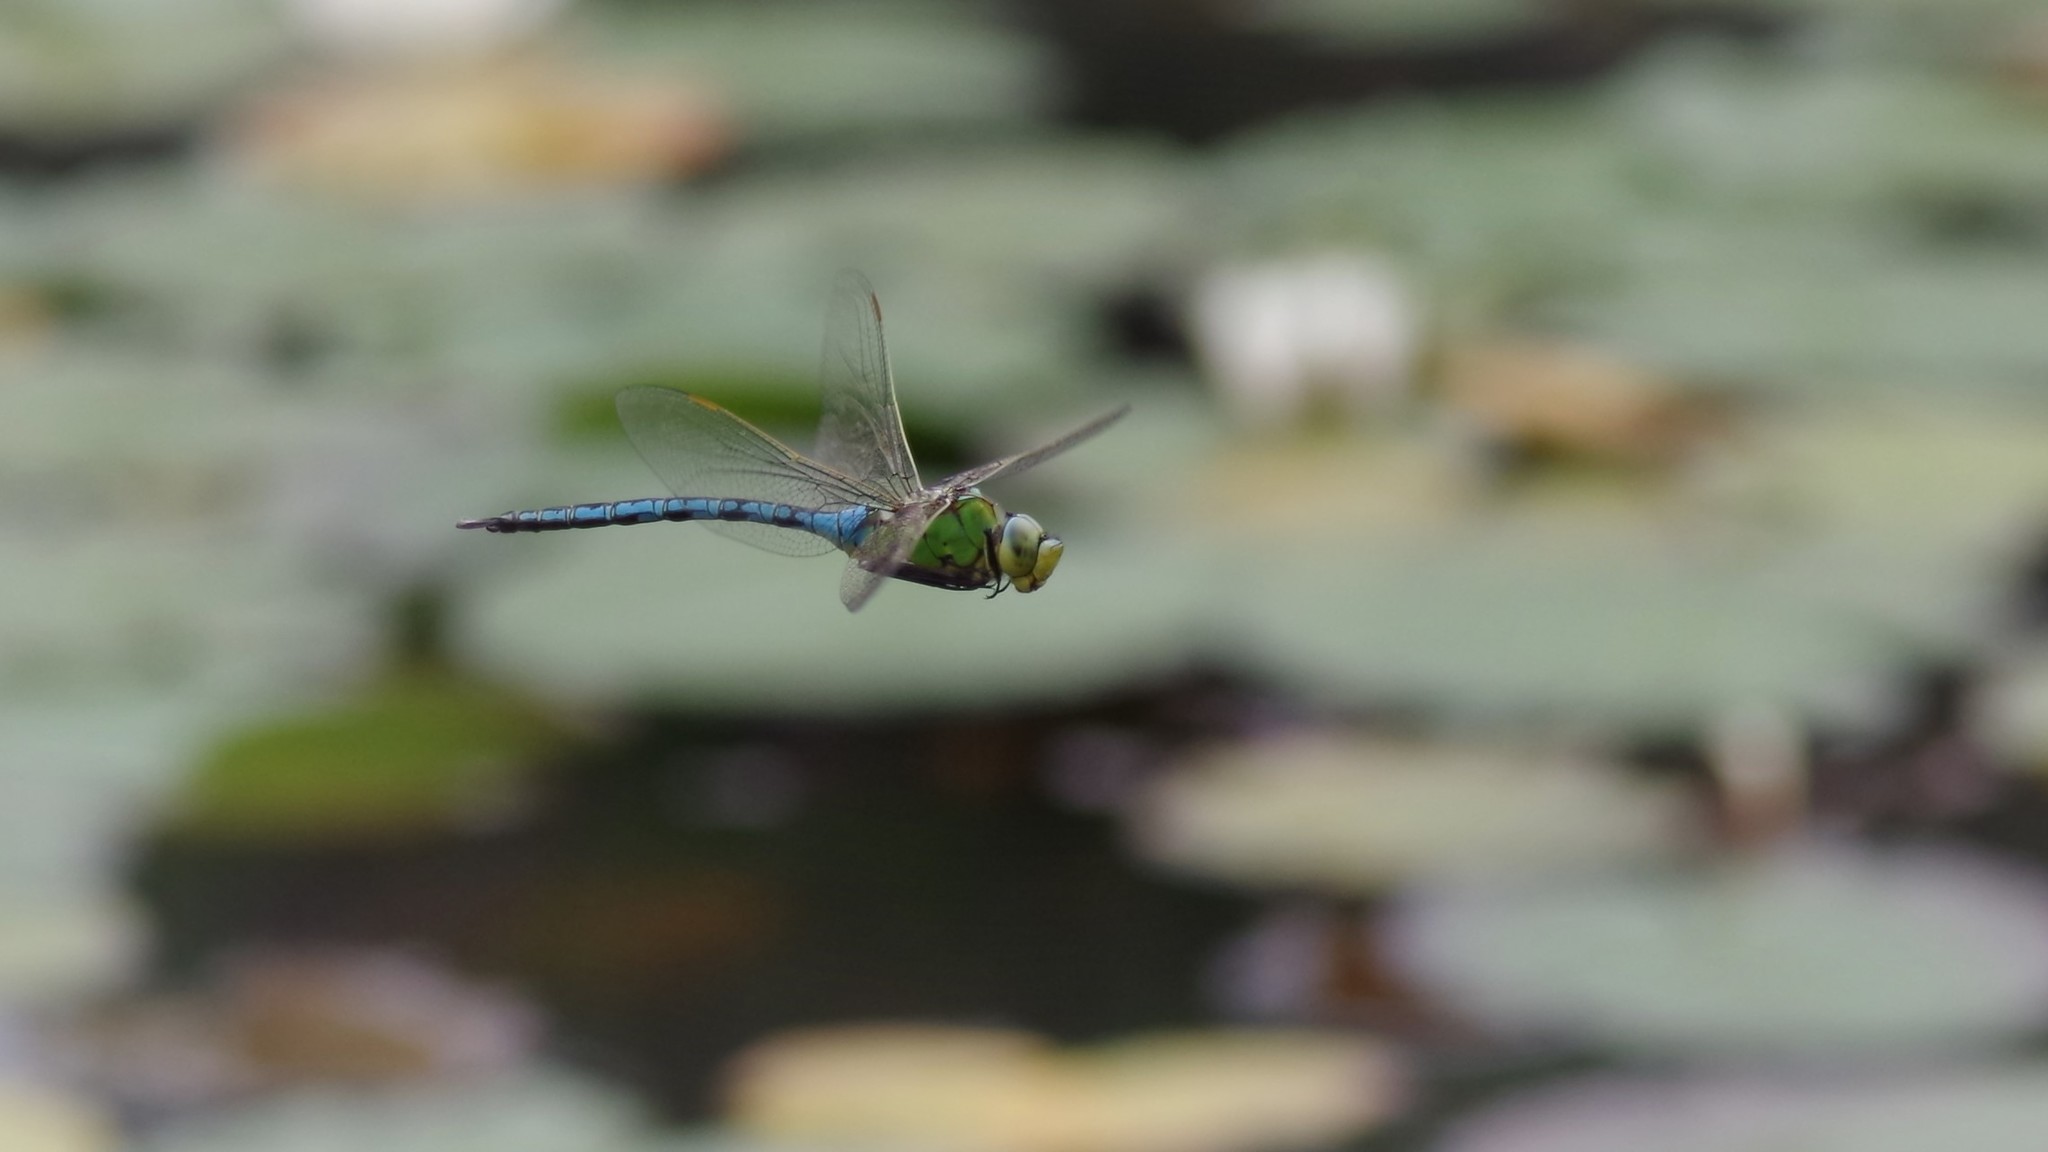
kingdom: Animalia
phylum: Arthropoda
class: Insecta
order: Odonata
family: Aeshnidae
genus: Anax
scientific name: Anax imperator
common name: Emperor dragonfly
